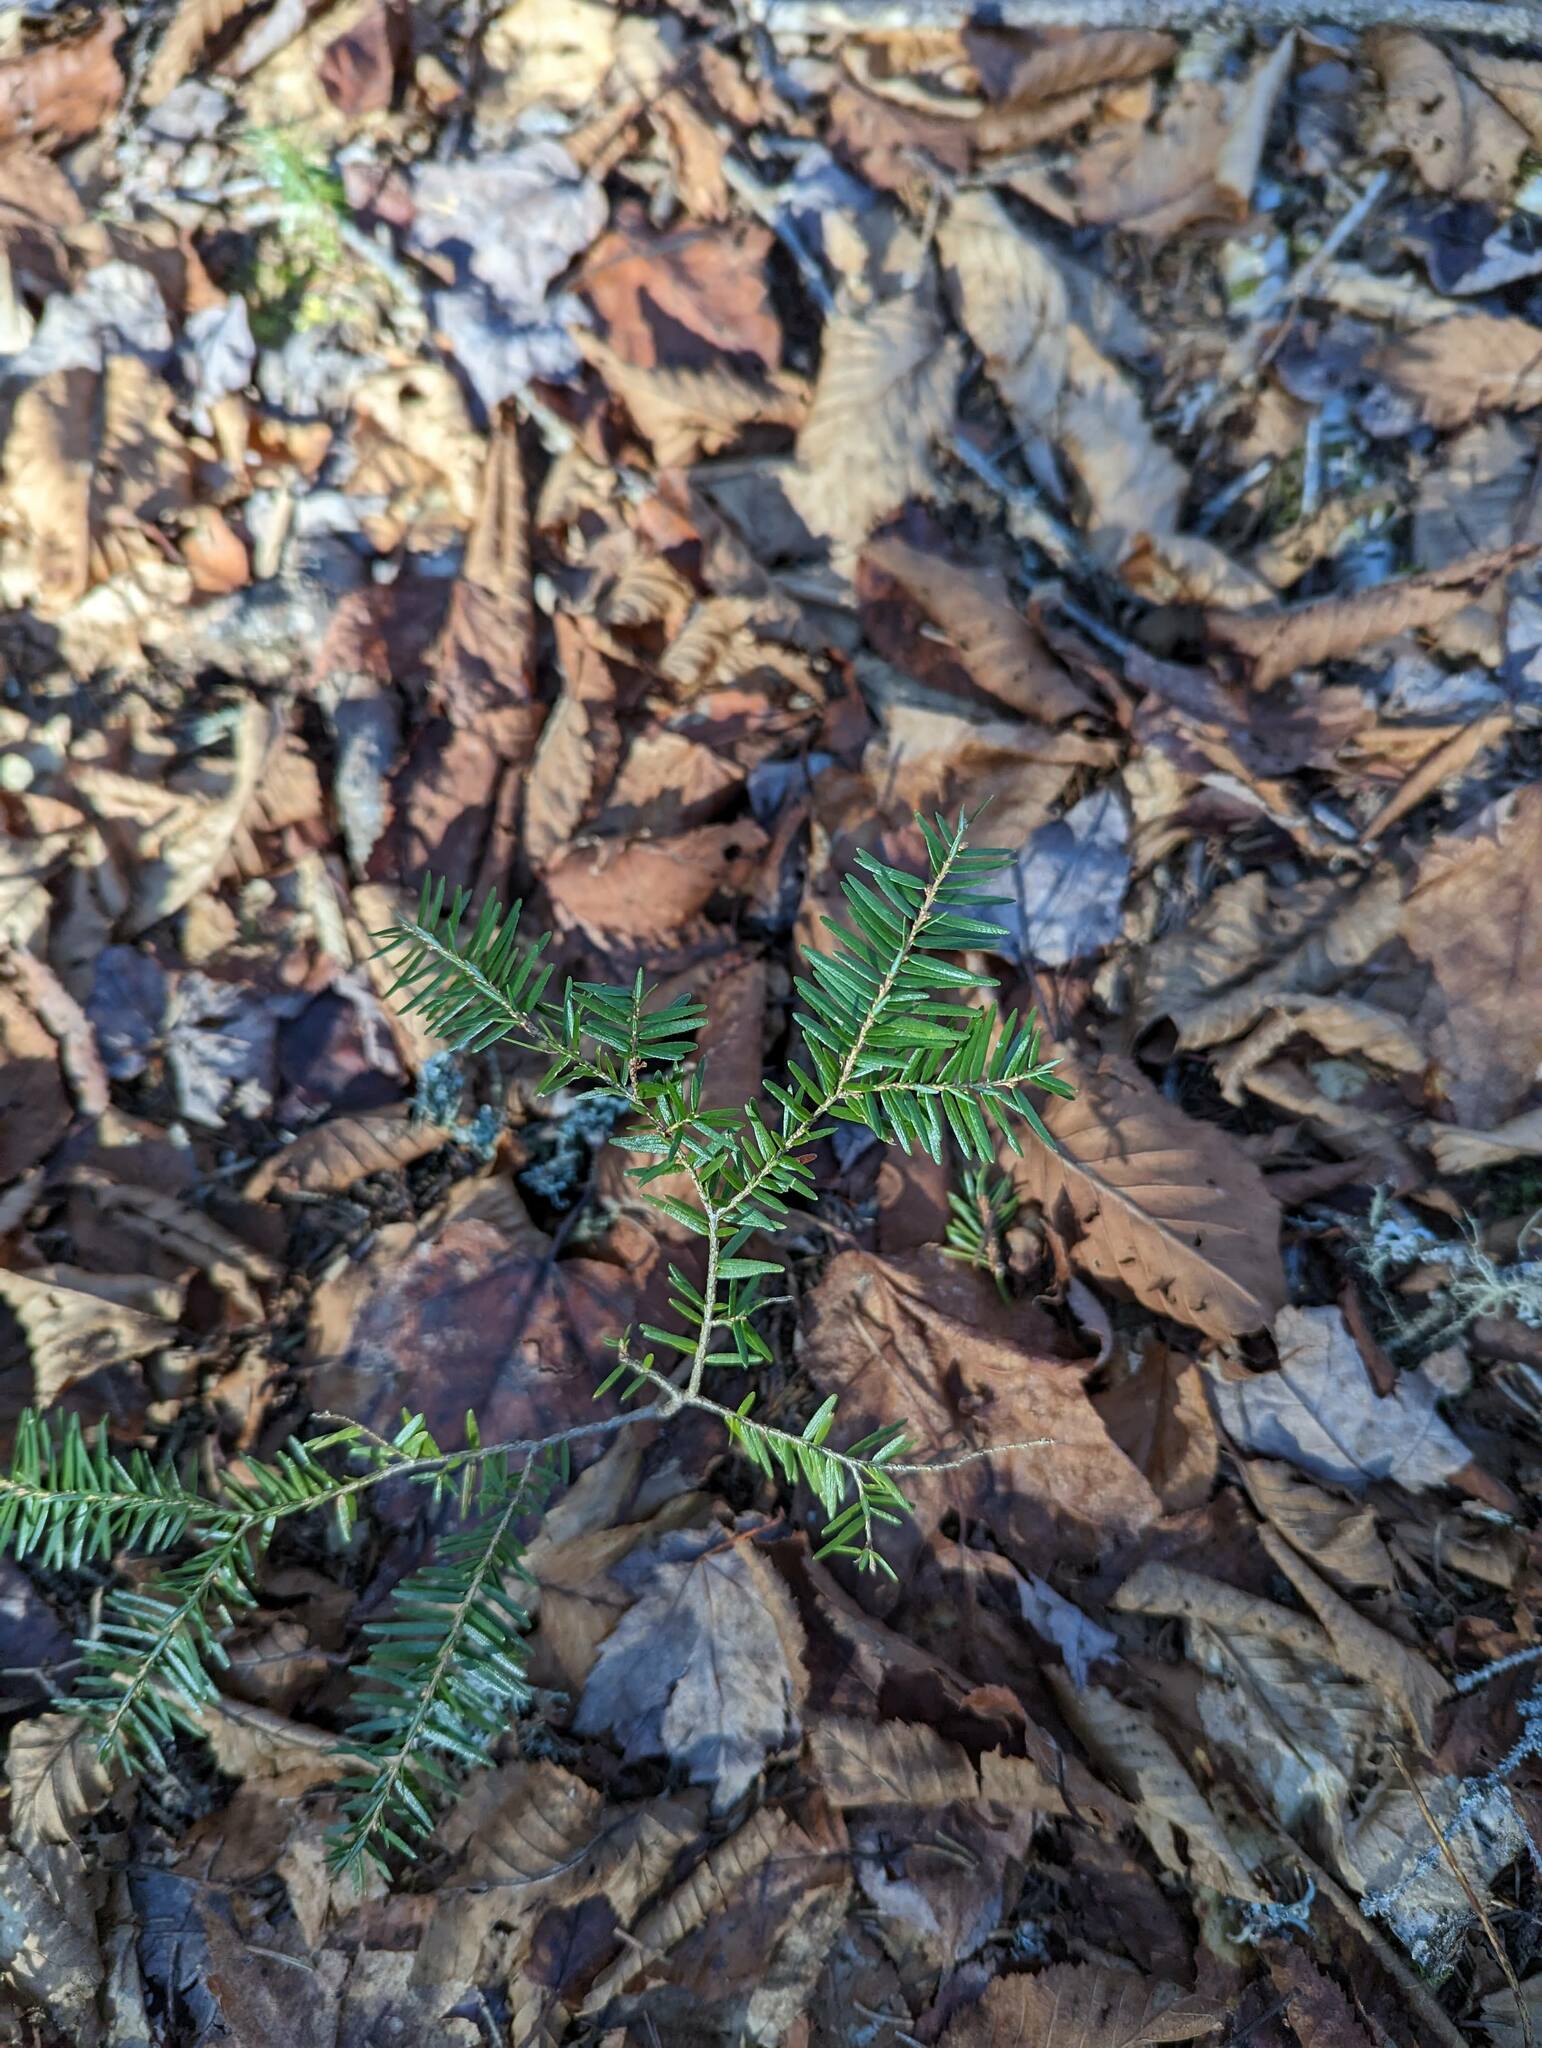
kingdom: Plantae
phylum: Tracheophyta
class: Pinopsida
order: Pinales
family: Pinaceae
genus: Tsuga
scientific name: Tsuga canadensis
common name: Eastern hemlock
